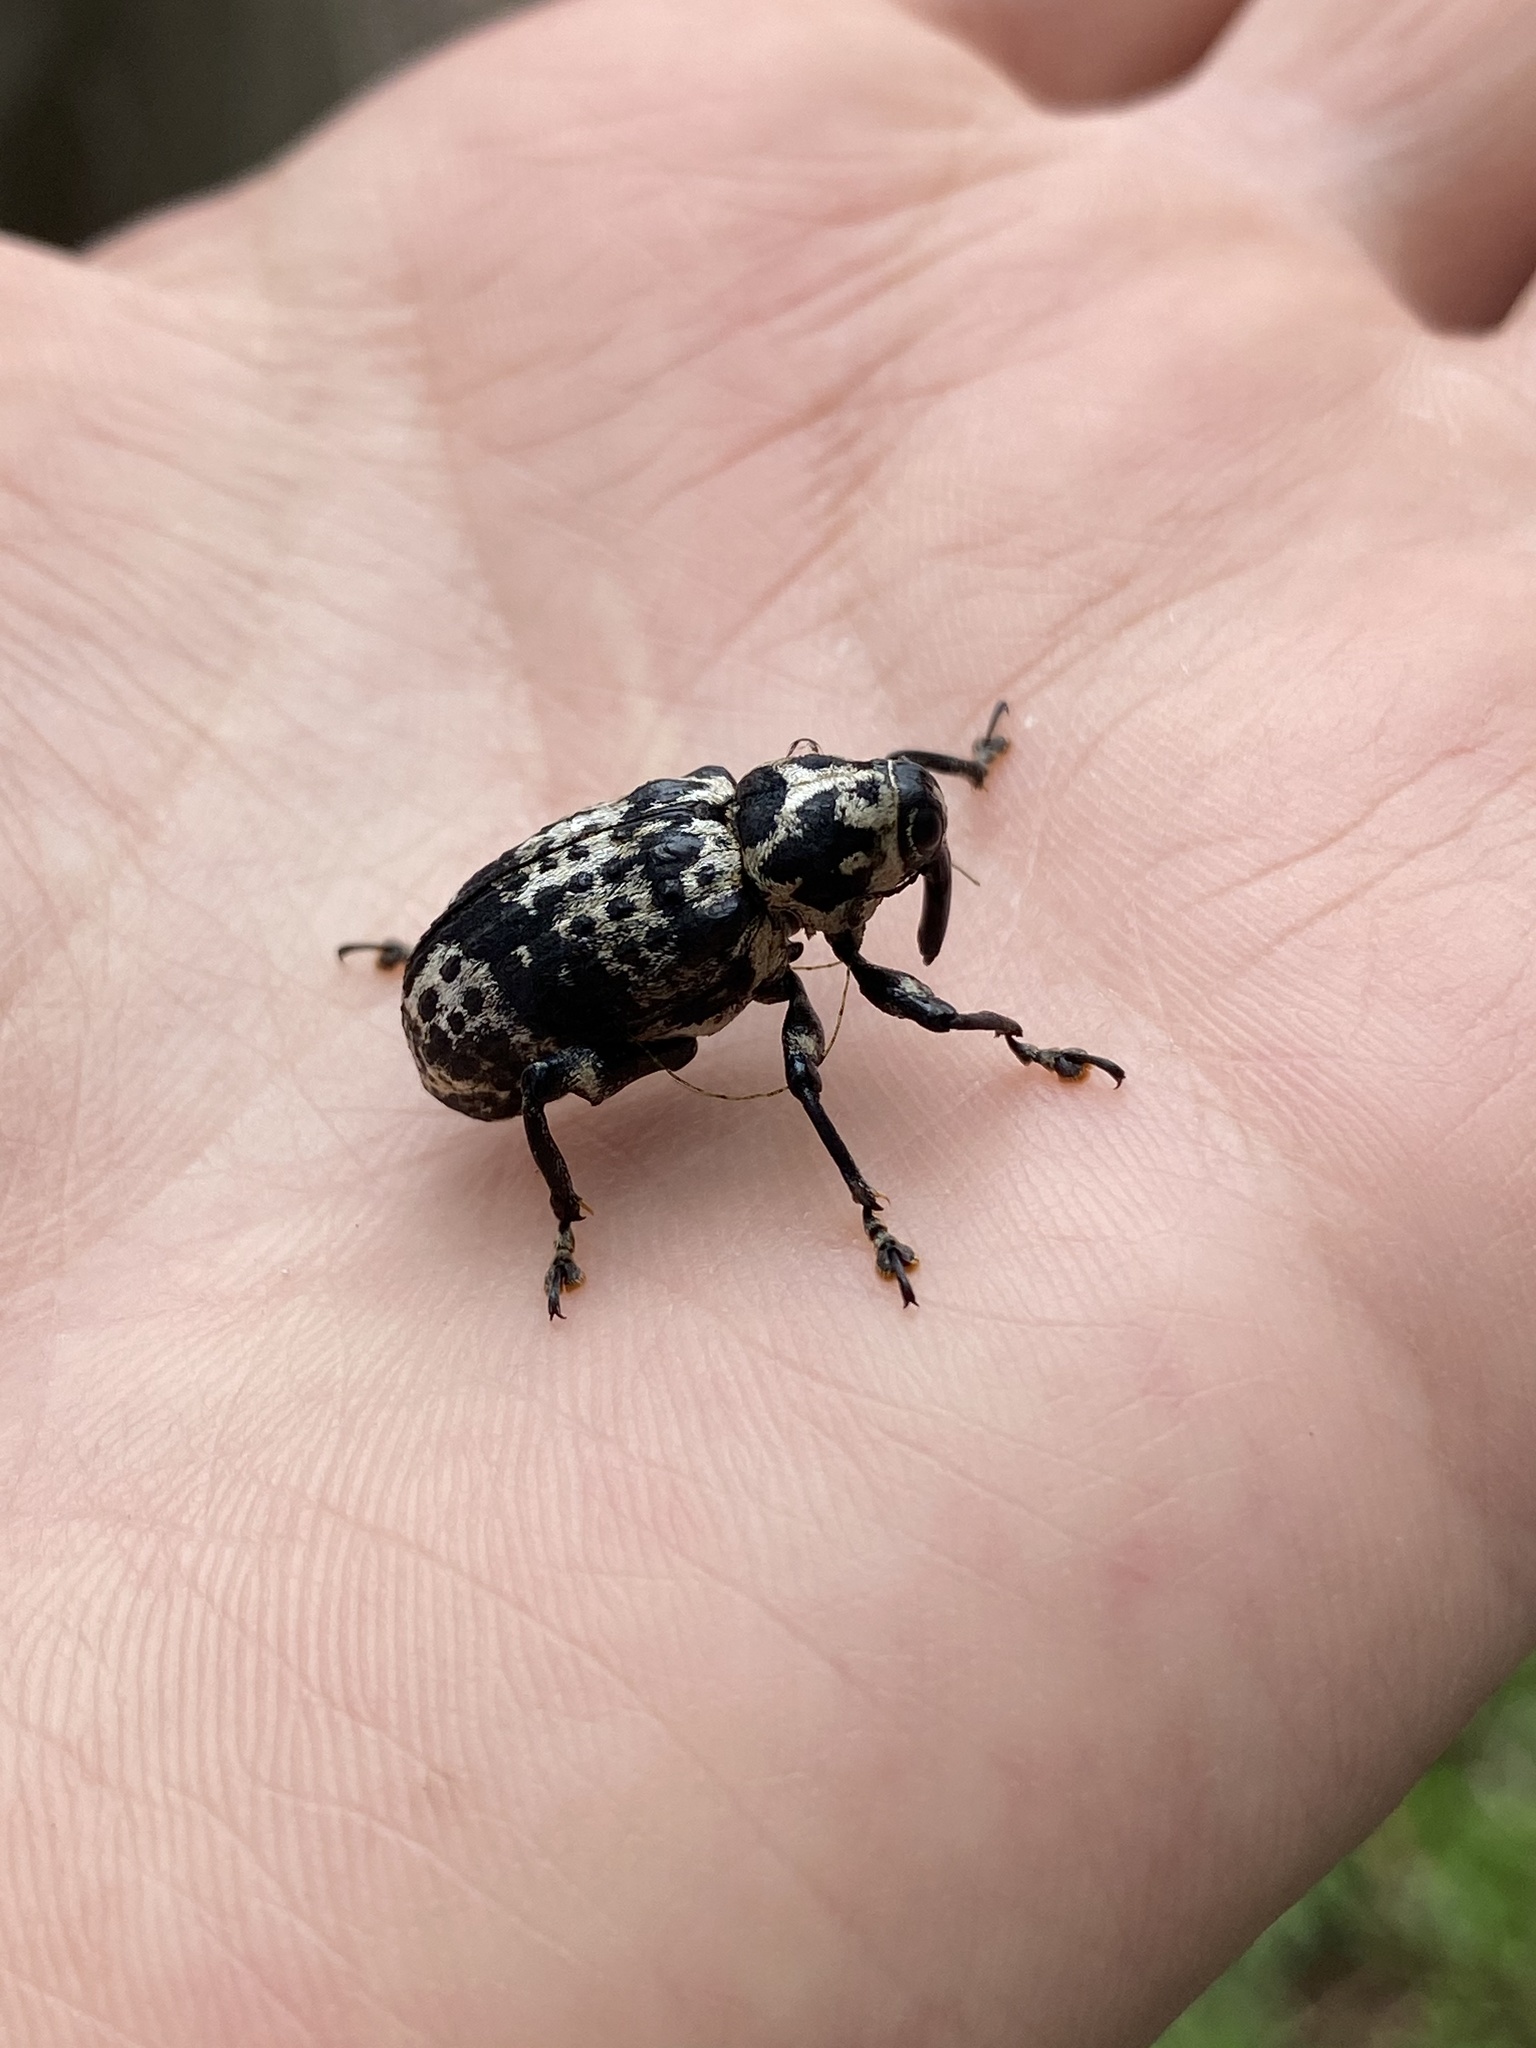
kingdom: Animalia
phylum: Arthropoda
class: Insecta
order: Coleoptera
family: Curculionidae
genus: Cratosomus
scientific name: Cratosomus punctulatus
